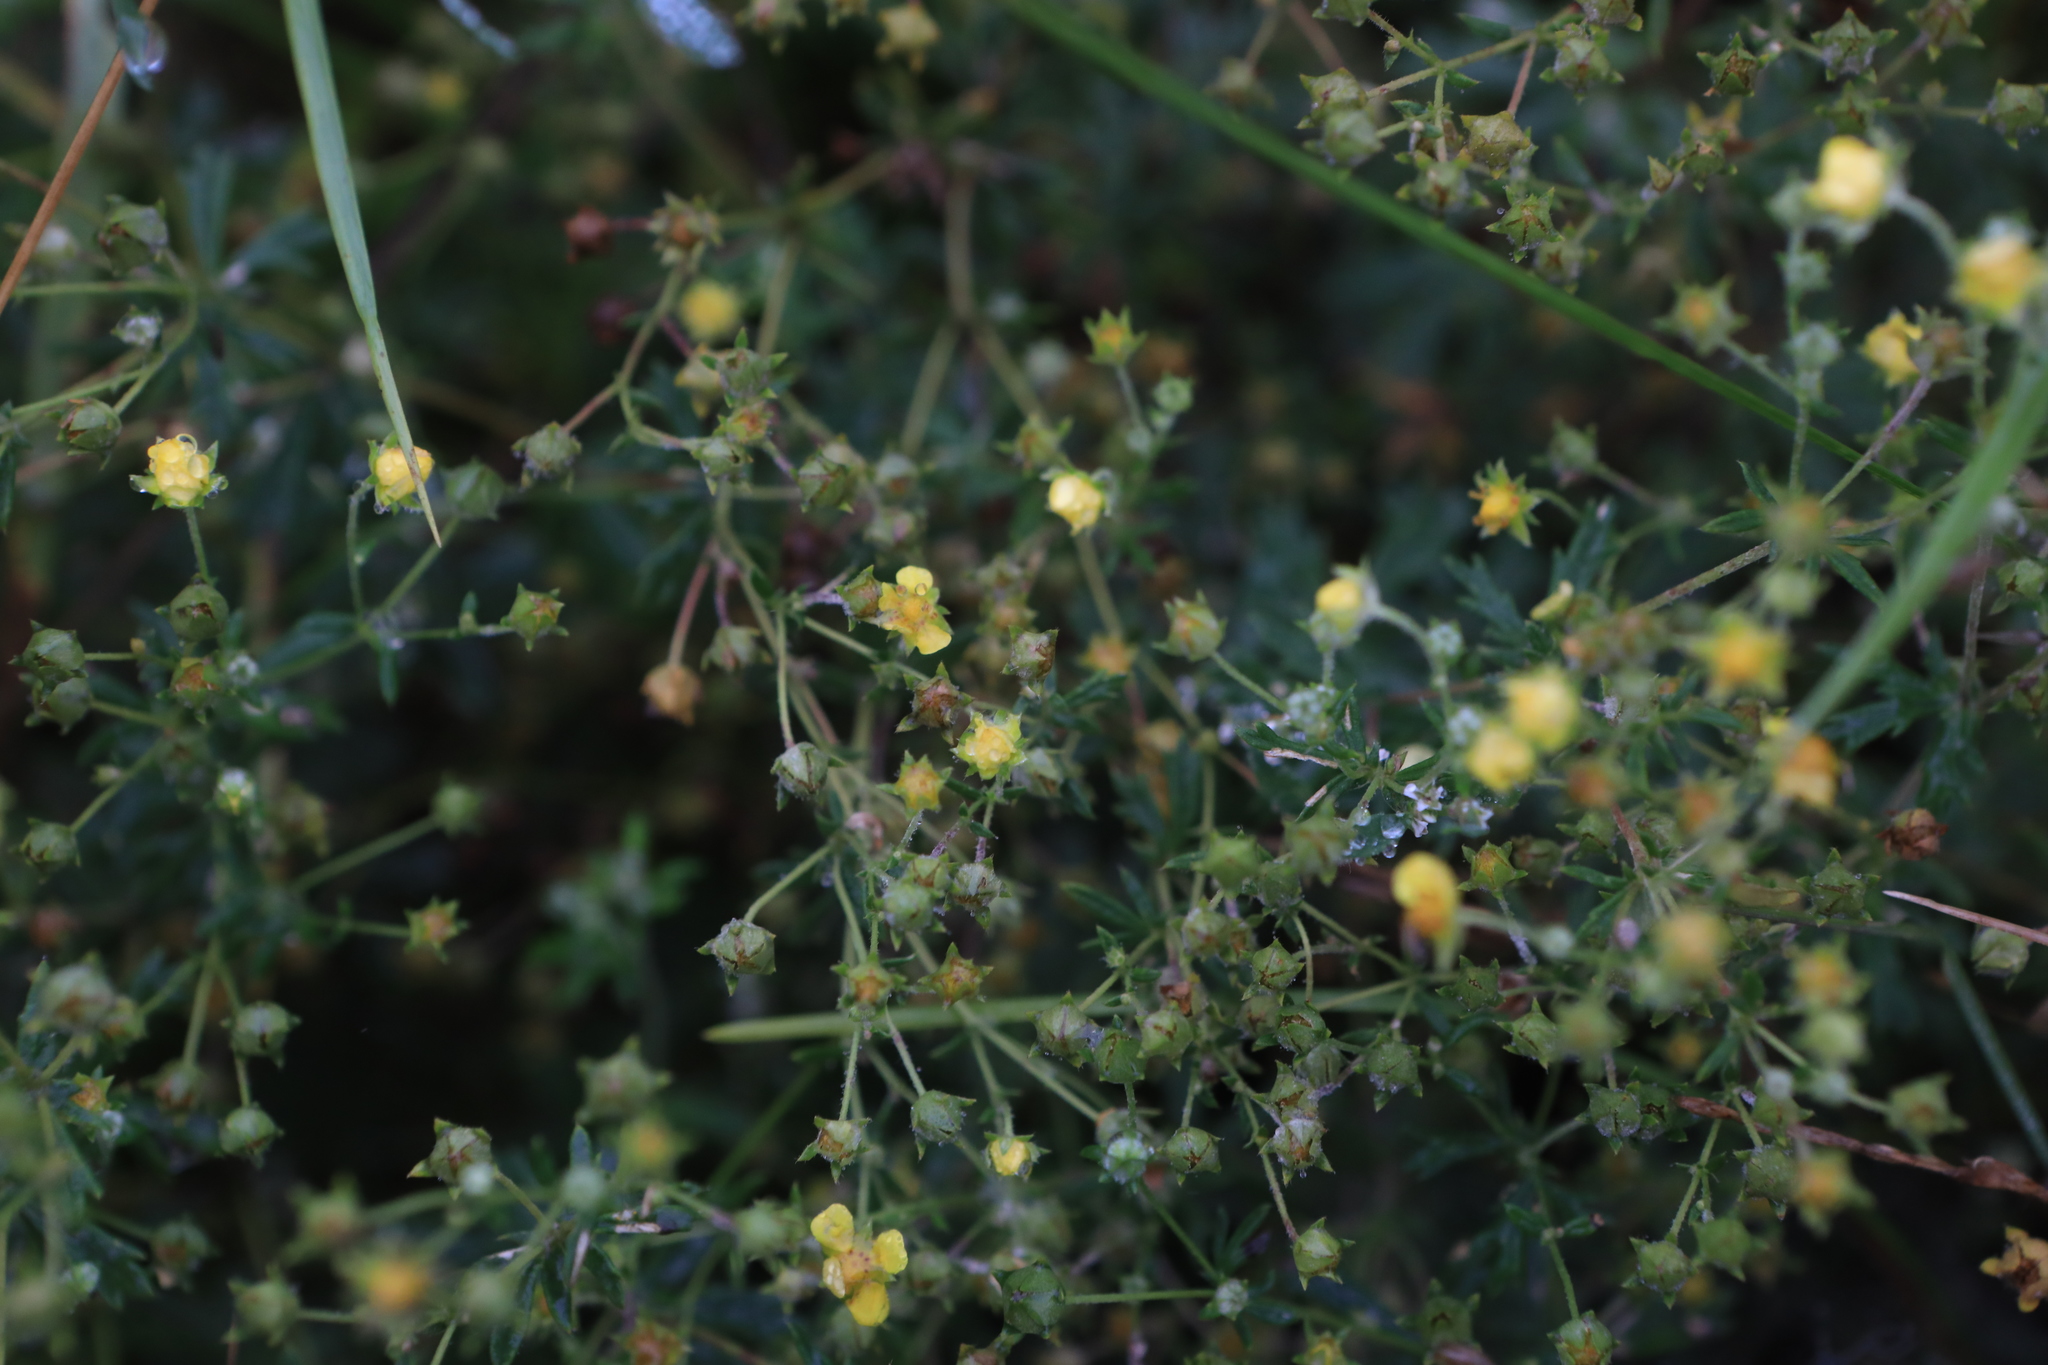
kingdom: Plantae
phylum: Tracheophyta
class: Magnoliopsida
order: Rosales
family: Rosaceae
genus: Potentilla
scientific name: Potentilla argentea
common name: Hoary cinquefoil
